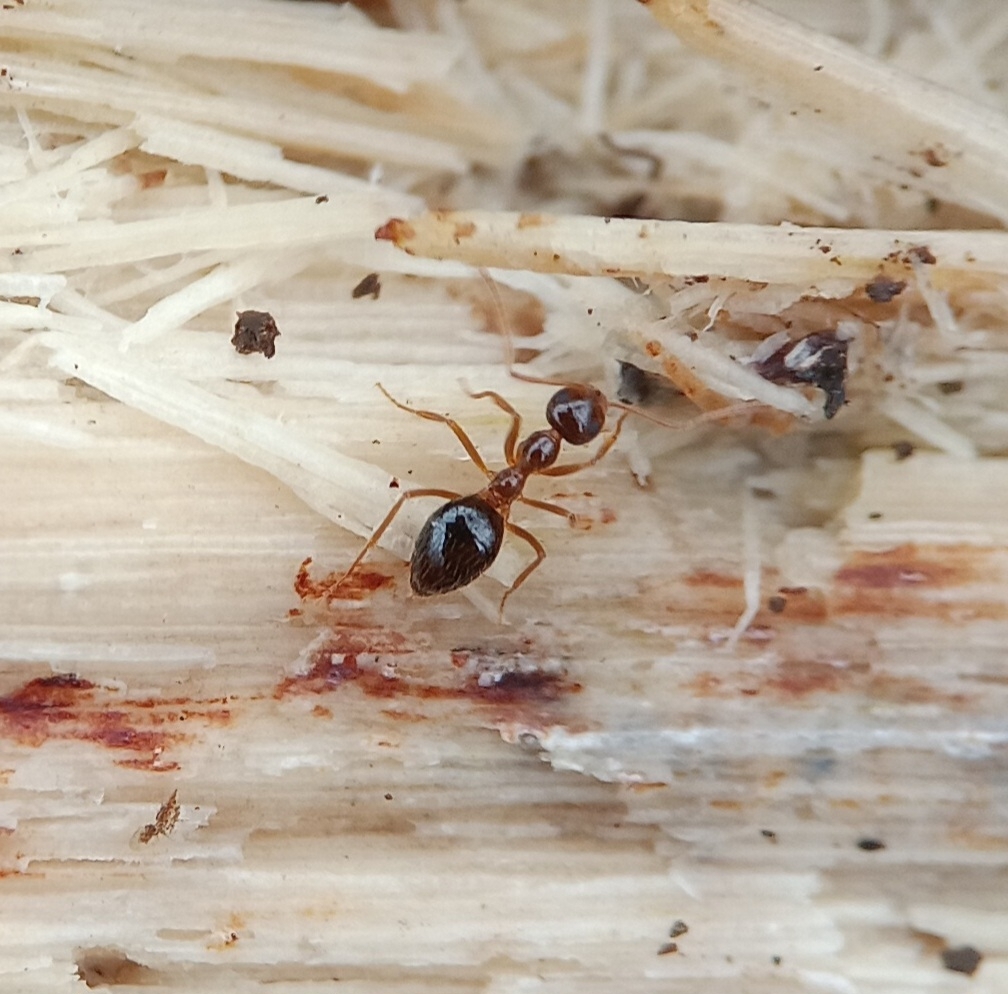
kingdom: Animalia
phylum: Arthropoda
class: Insecta
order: Hymenoptera
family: Formicidae
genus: Prenolepis
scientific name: Prenolepis imparis
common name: Small honey ant
